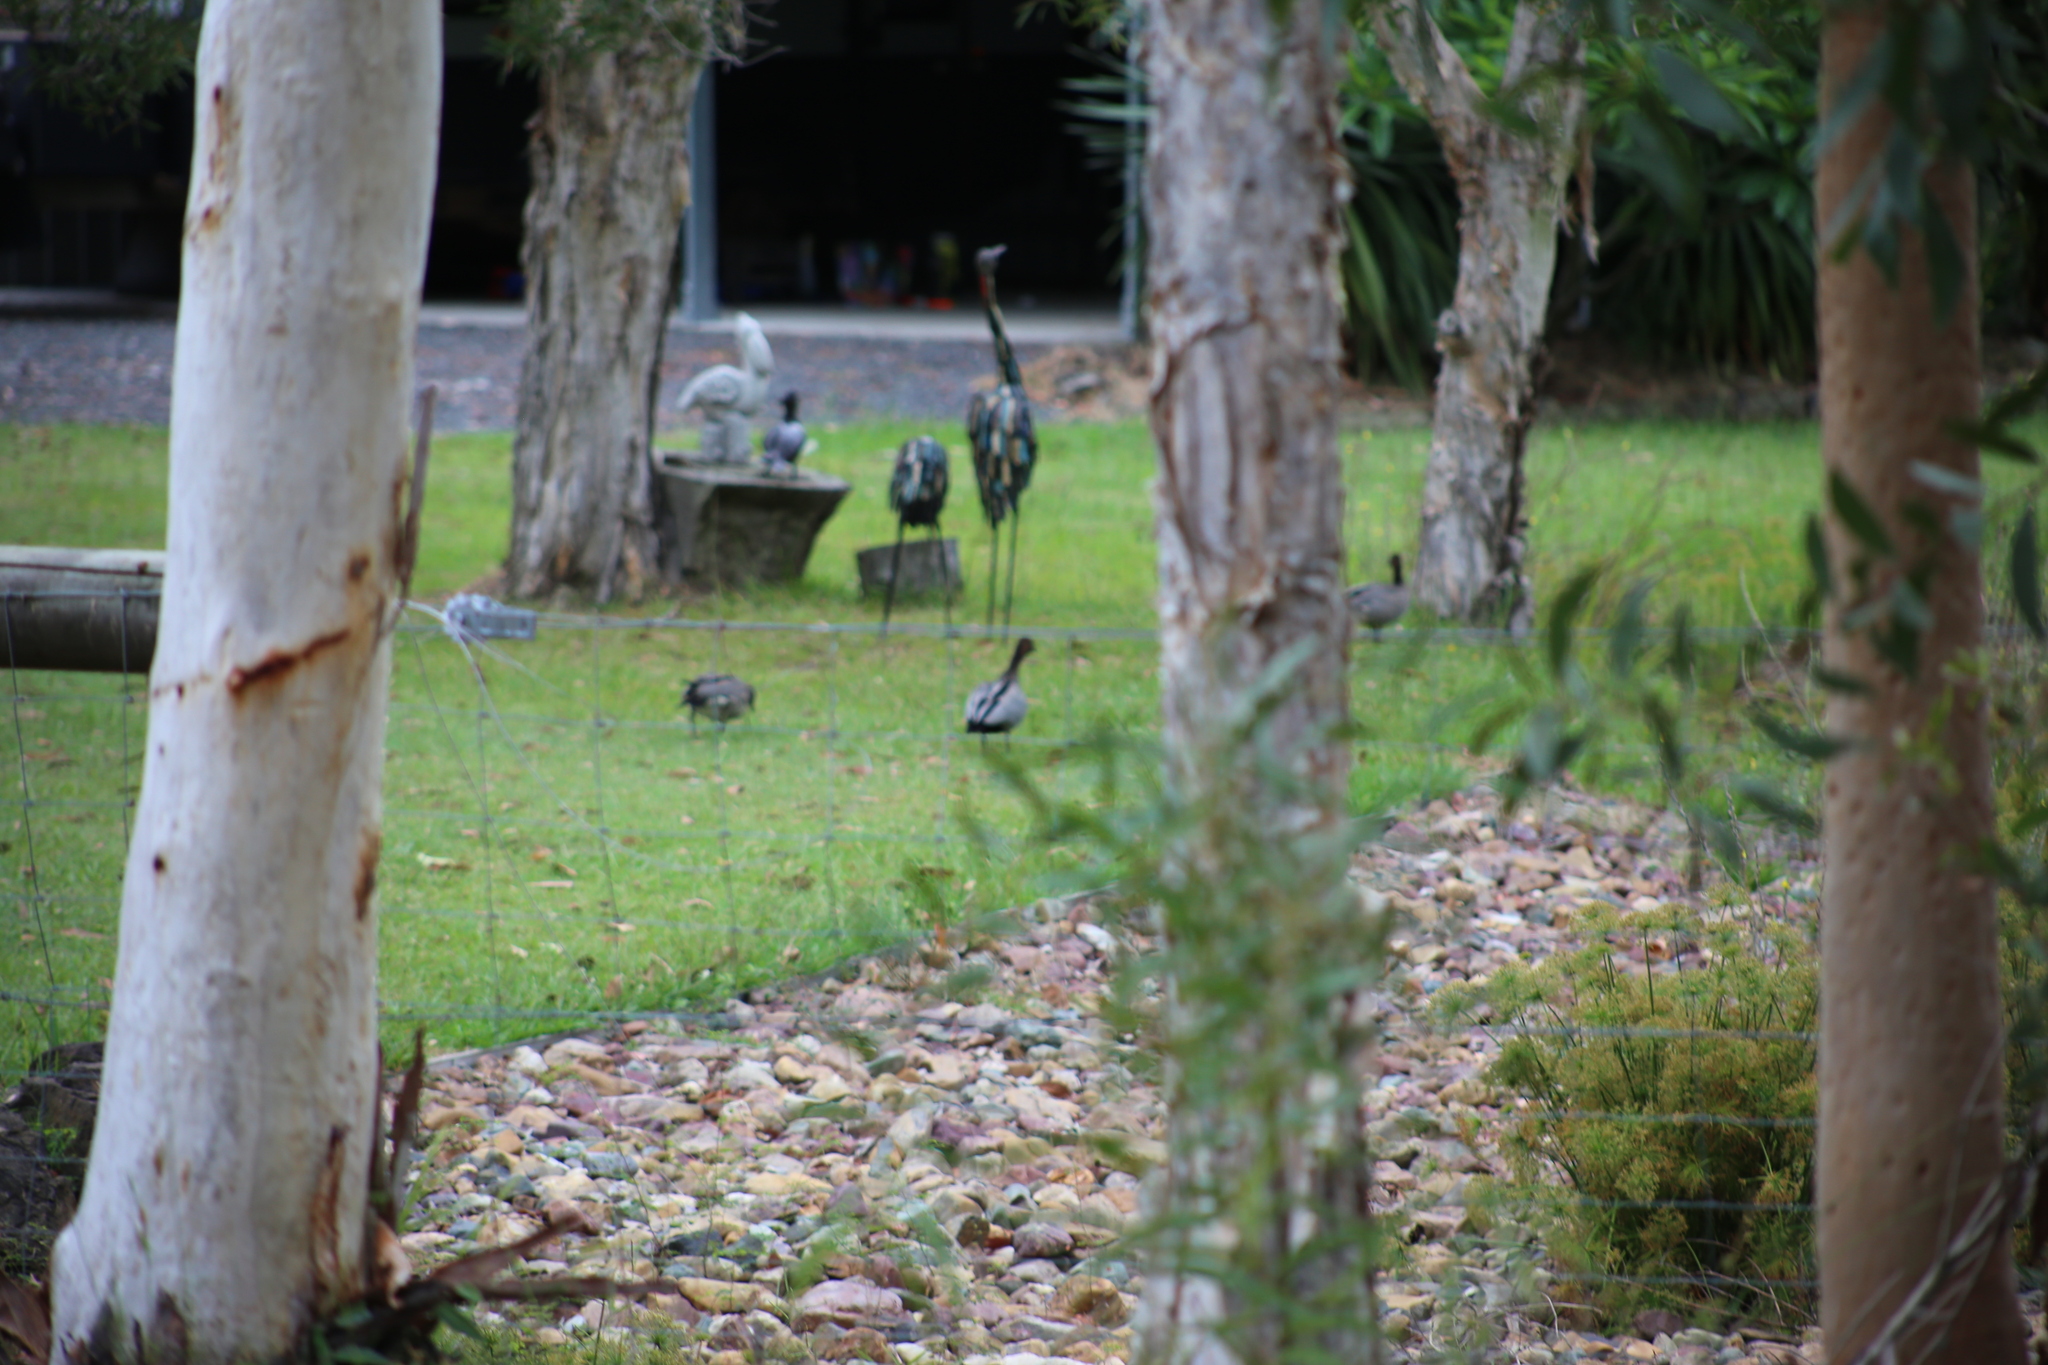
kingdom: Animalia
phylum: Chordata
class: Aves
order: Anseriformes
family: Anatidae
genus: Chenonetta
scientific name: Chenonetta jubata
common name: Maned duck
